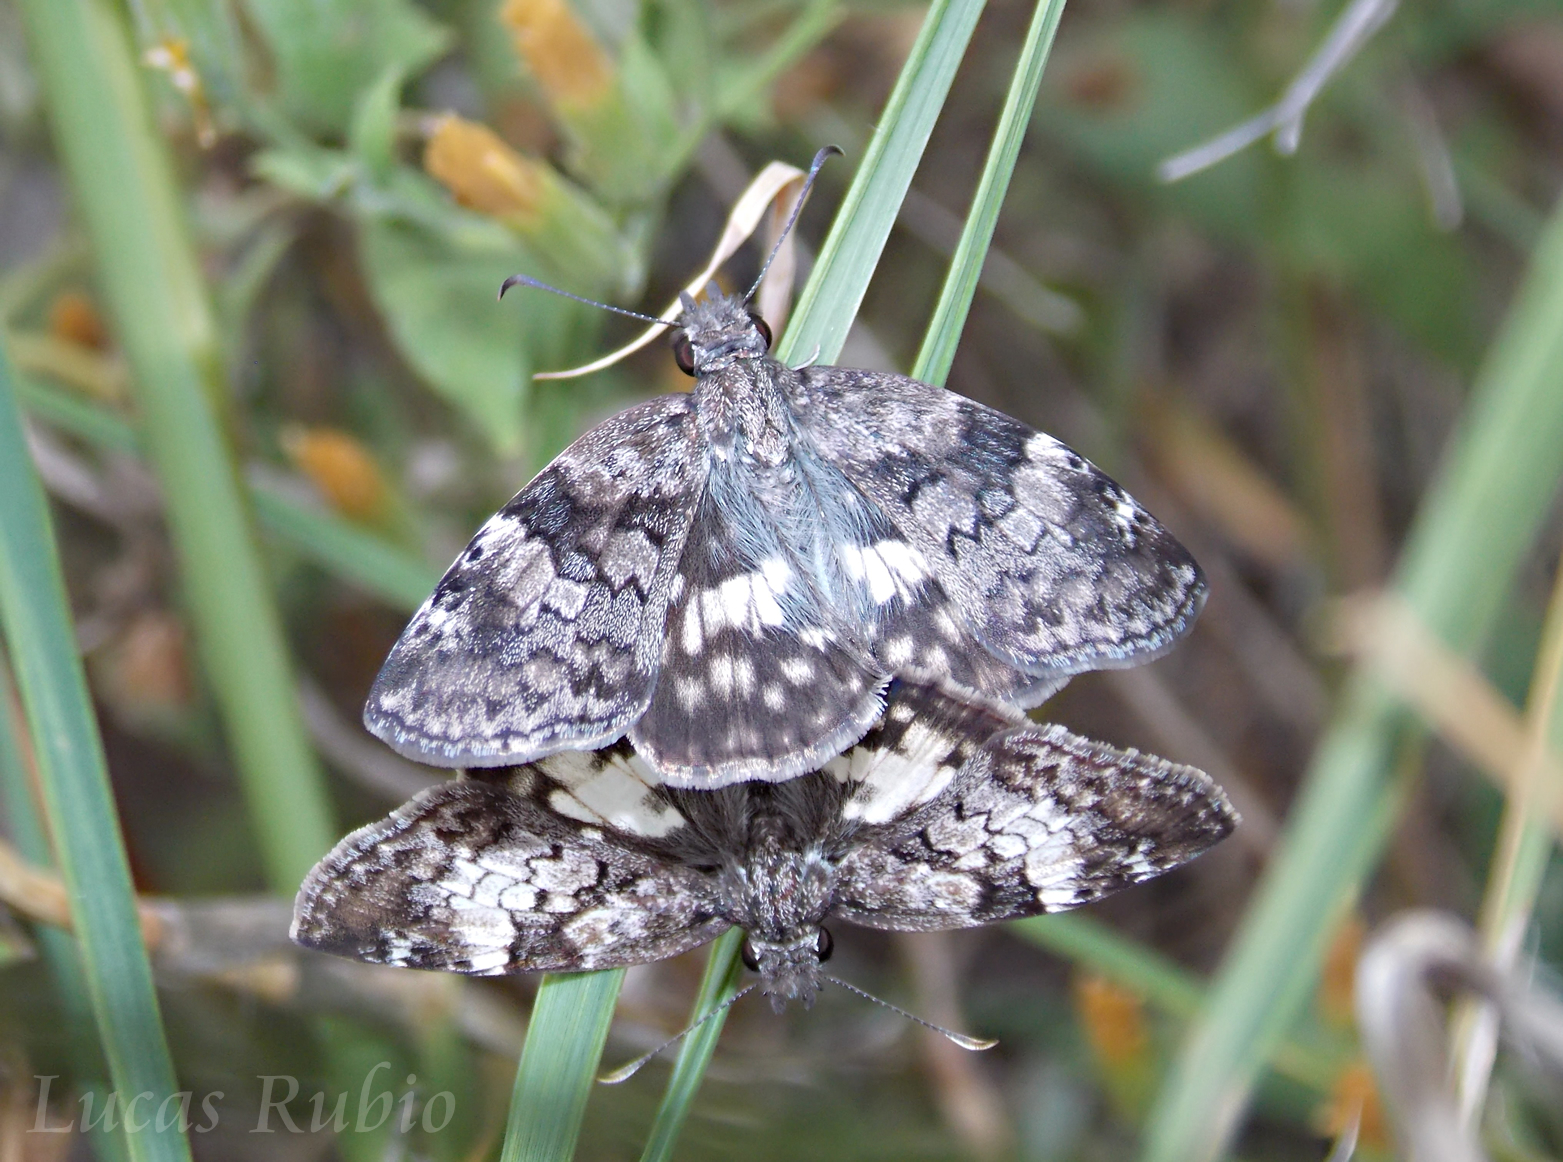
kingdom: Animalia
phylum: Arthropoda
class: Insecta
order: Lepidoptera
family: Hesperiidae
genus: Chiomara
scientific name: Chiomara asychis
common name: White-patterned skipper
